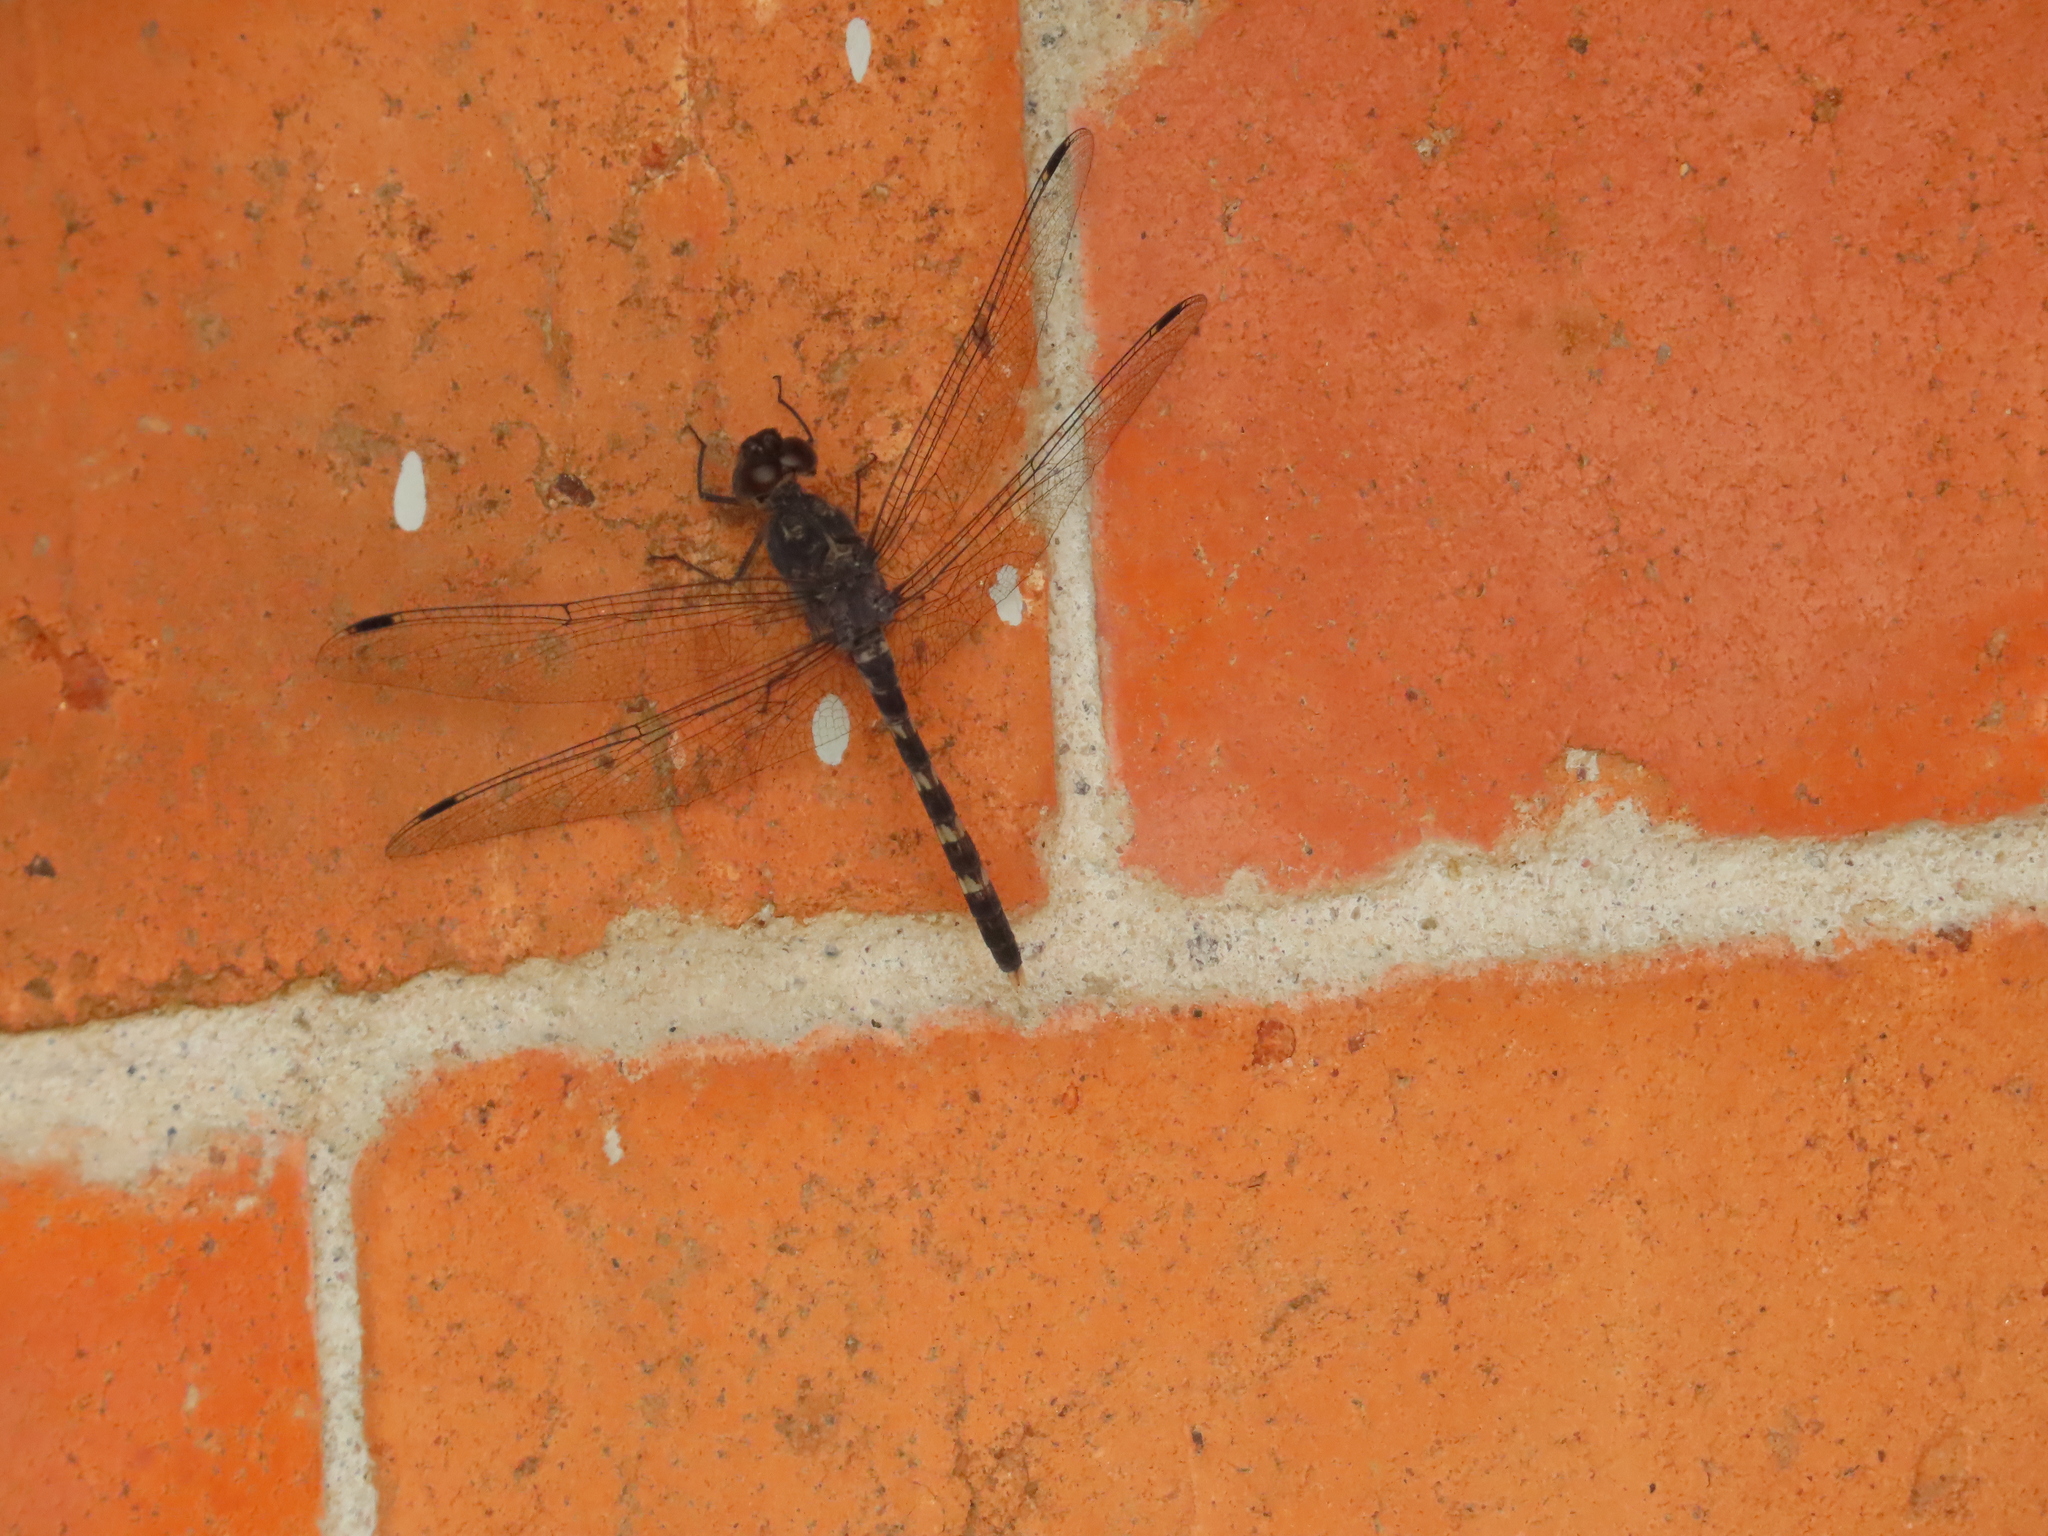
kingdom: Animalia
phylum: Arthropoda
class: Insecta
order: Odonata
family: Libellulidae
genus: Bradinopyga
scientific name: Bradinopyga geminata
